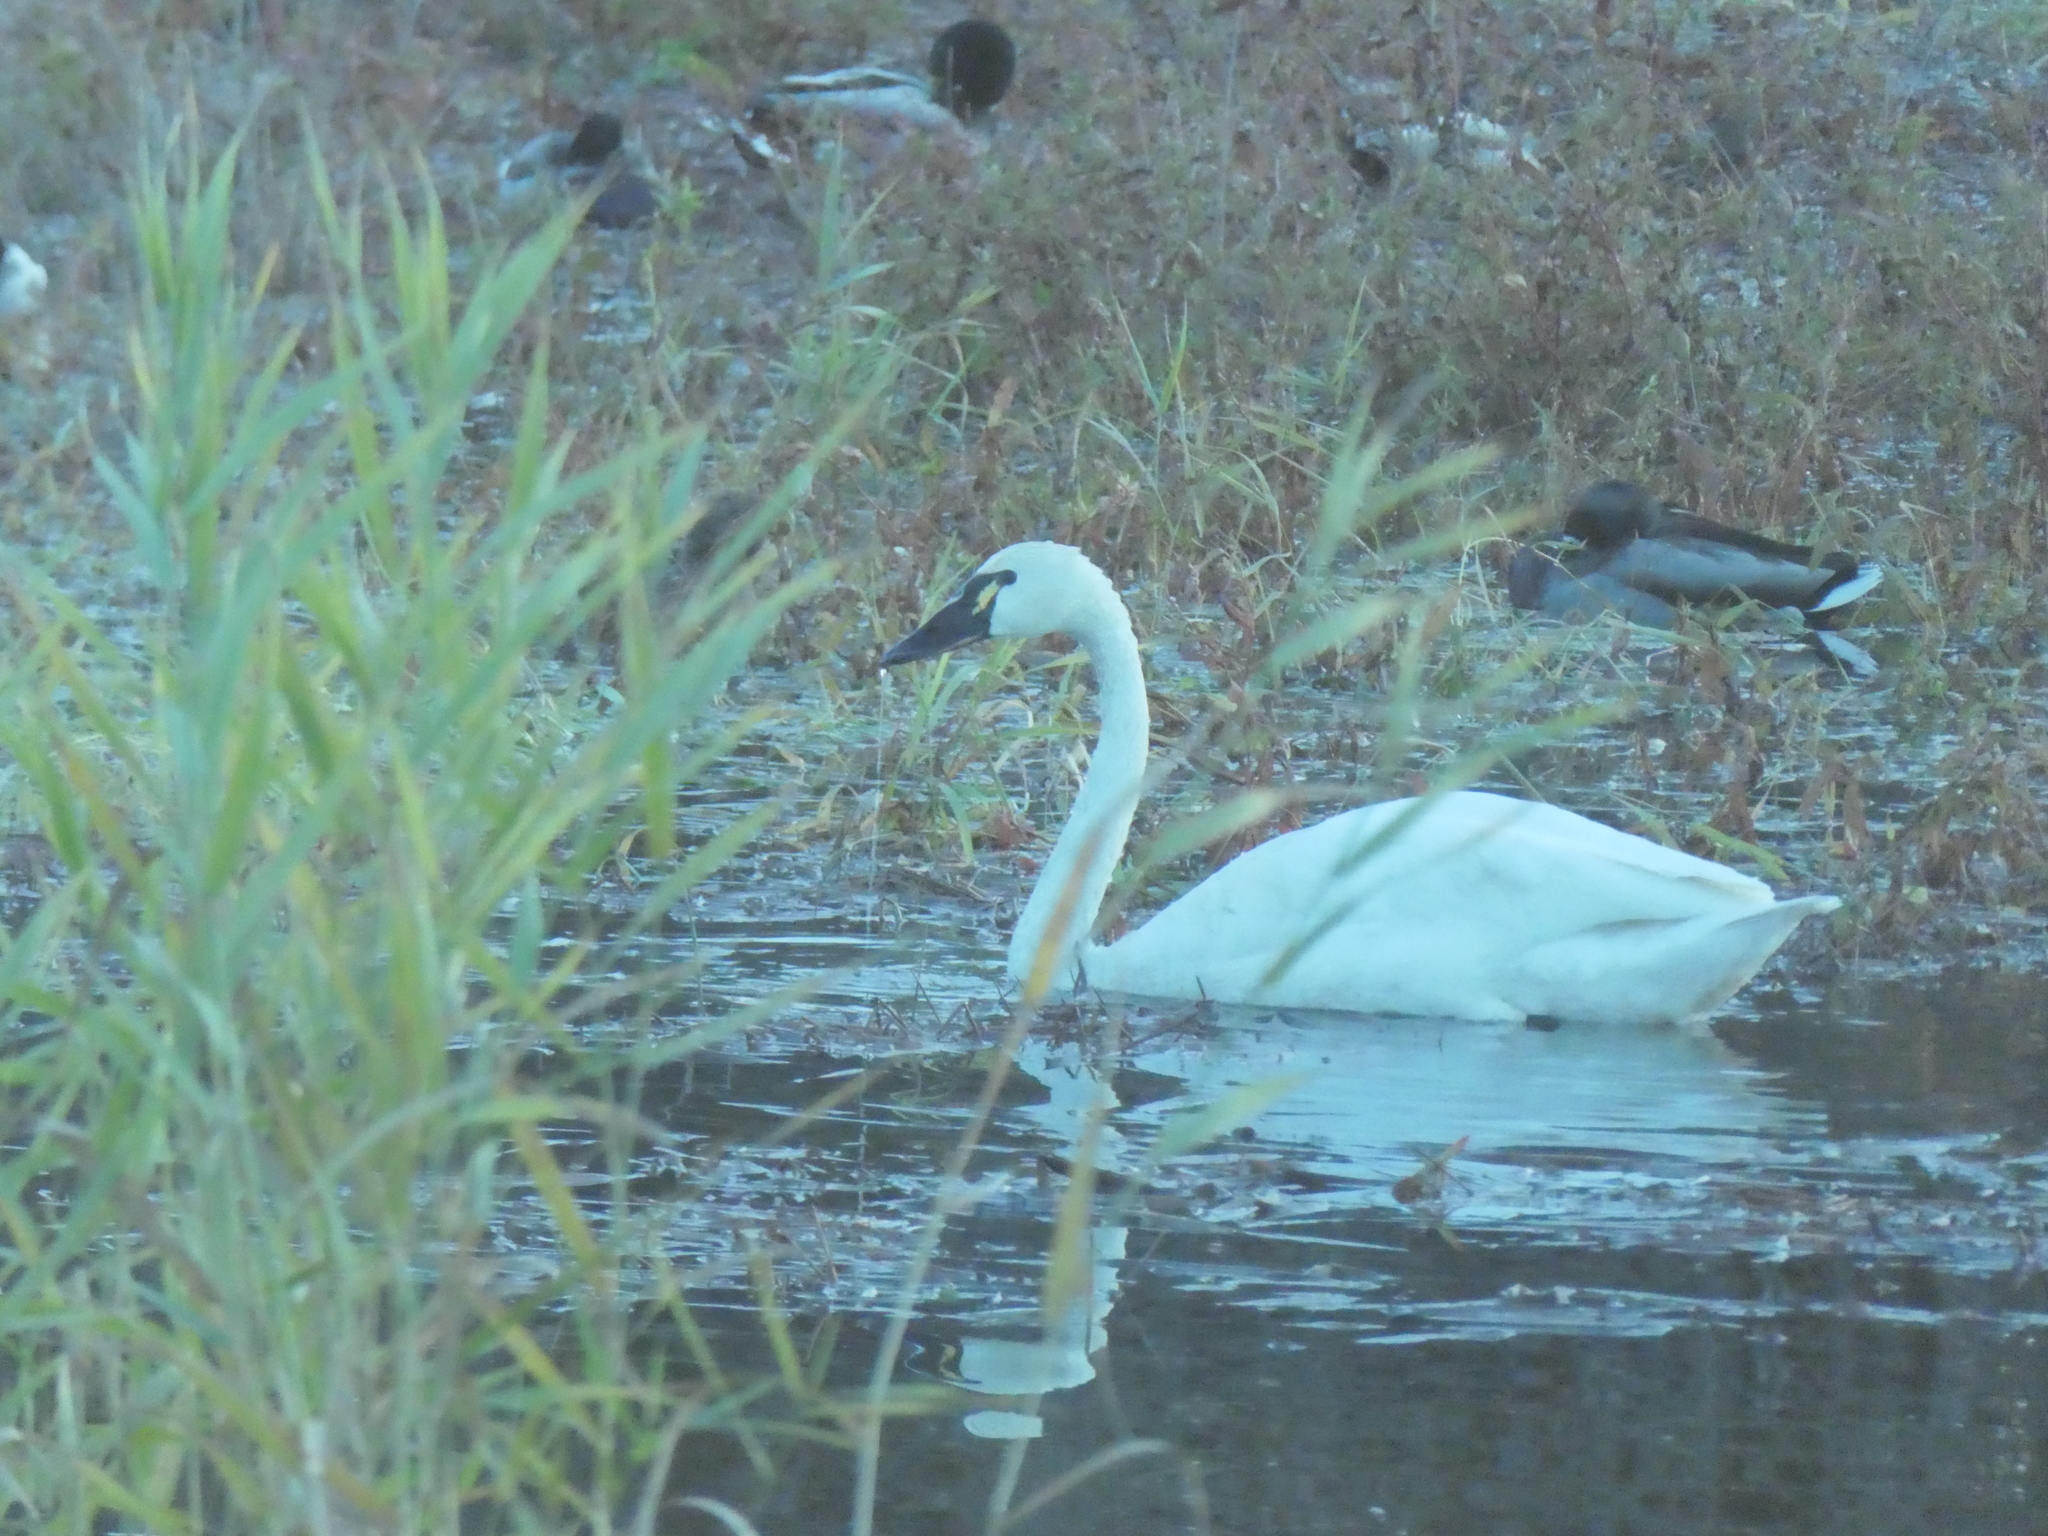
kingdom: Animalia
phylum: Chordata
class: Aves
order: Anseriformes
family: Anatidae
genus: Cygnus
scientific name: Cygnus columbianus
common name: Tundra swan
